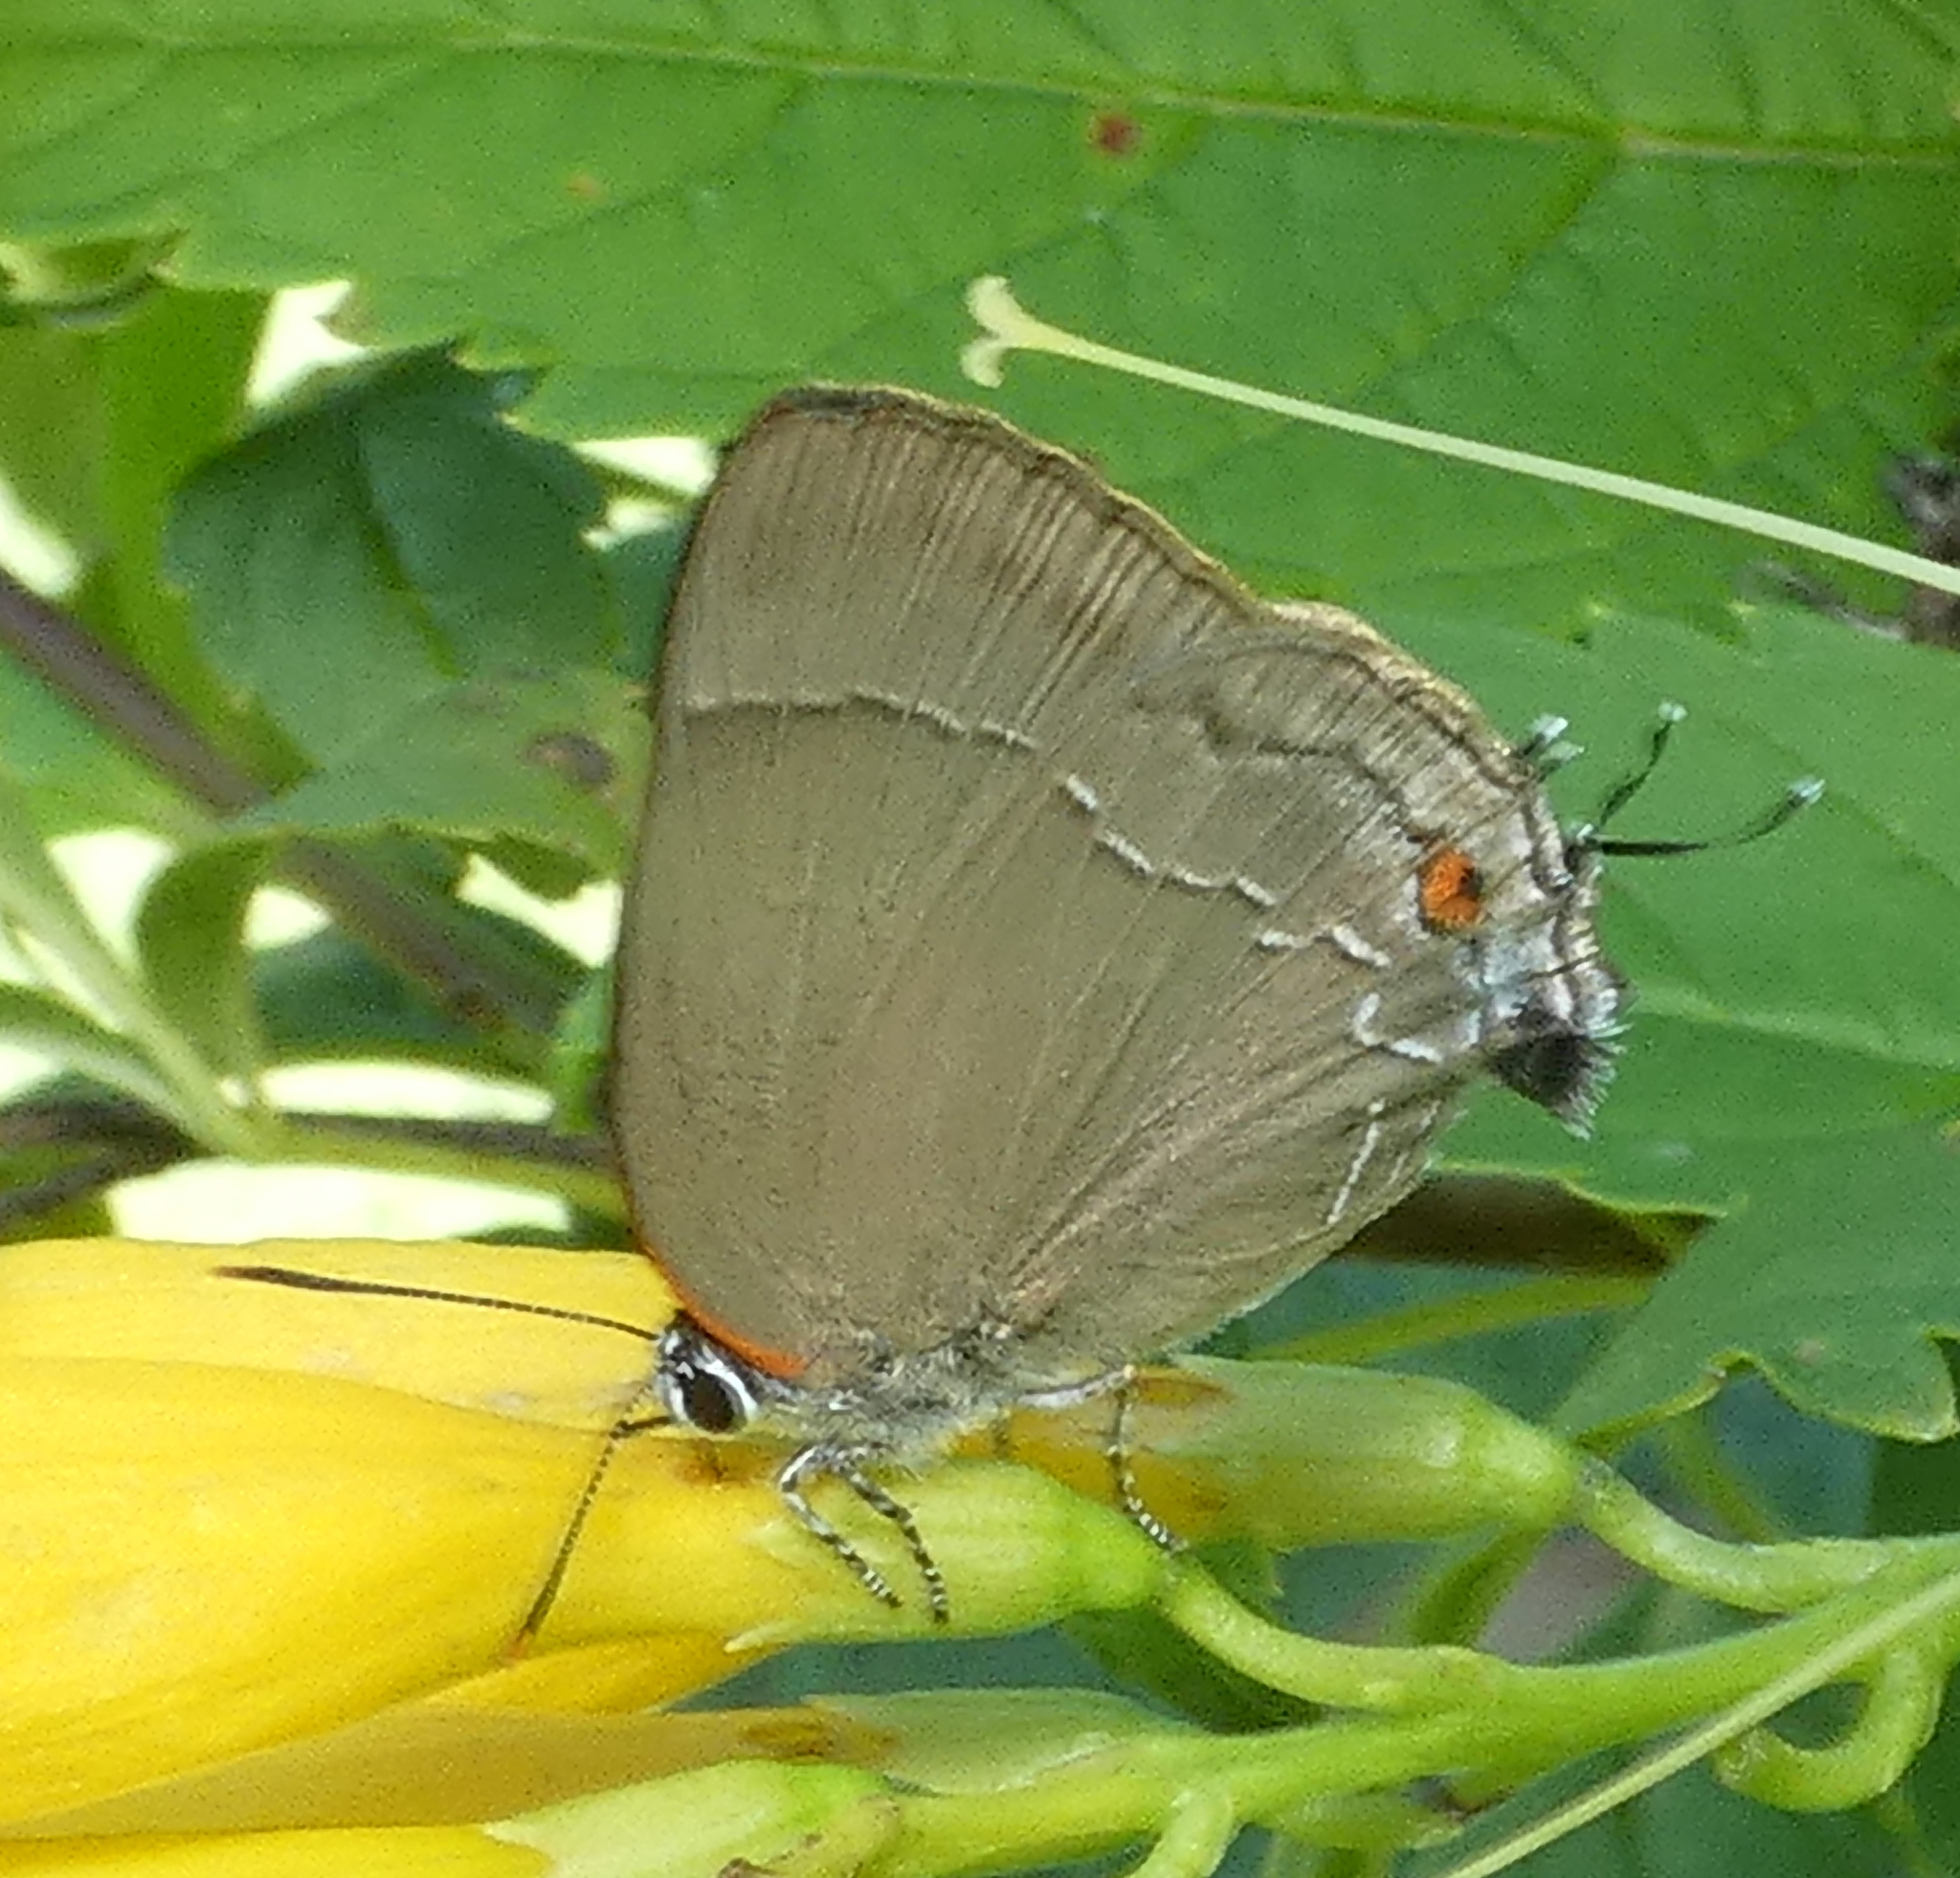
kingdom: Animalia
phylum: Arthropoda
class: Insecta
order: Lepidoptera
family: Lycaenidae
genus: Thecla
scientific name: Thecla spurina
